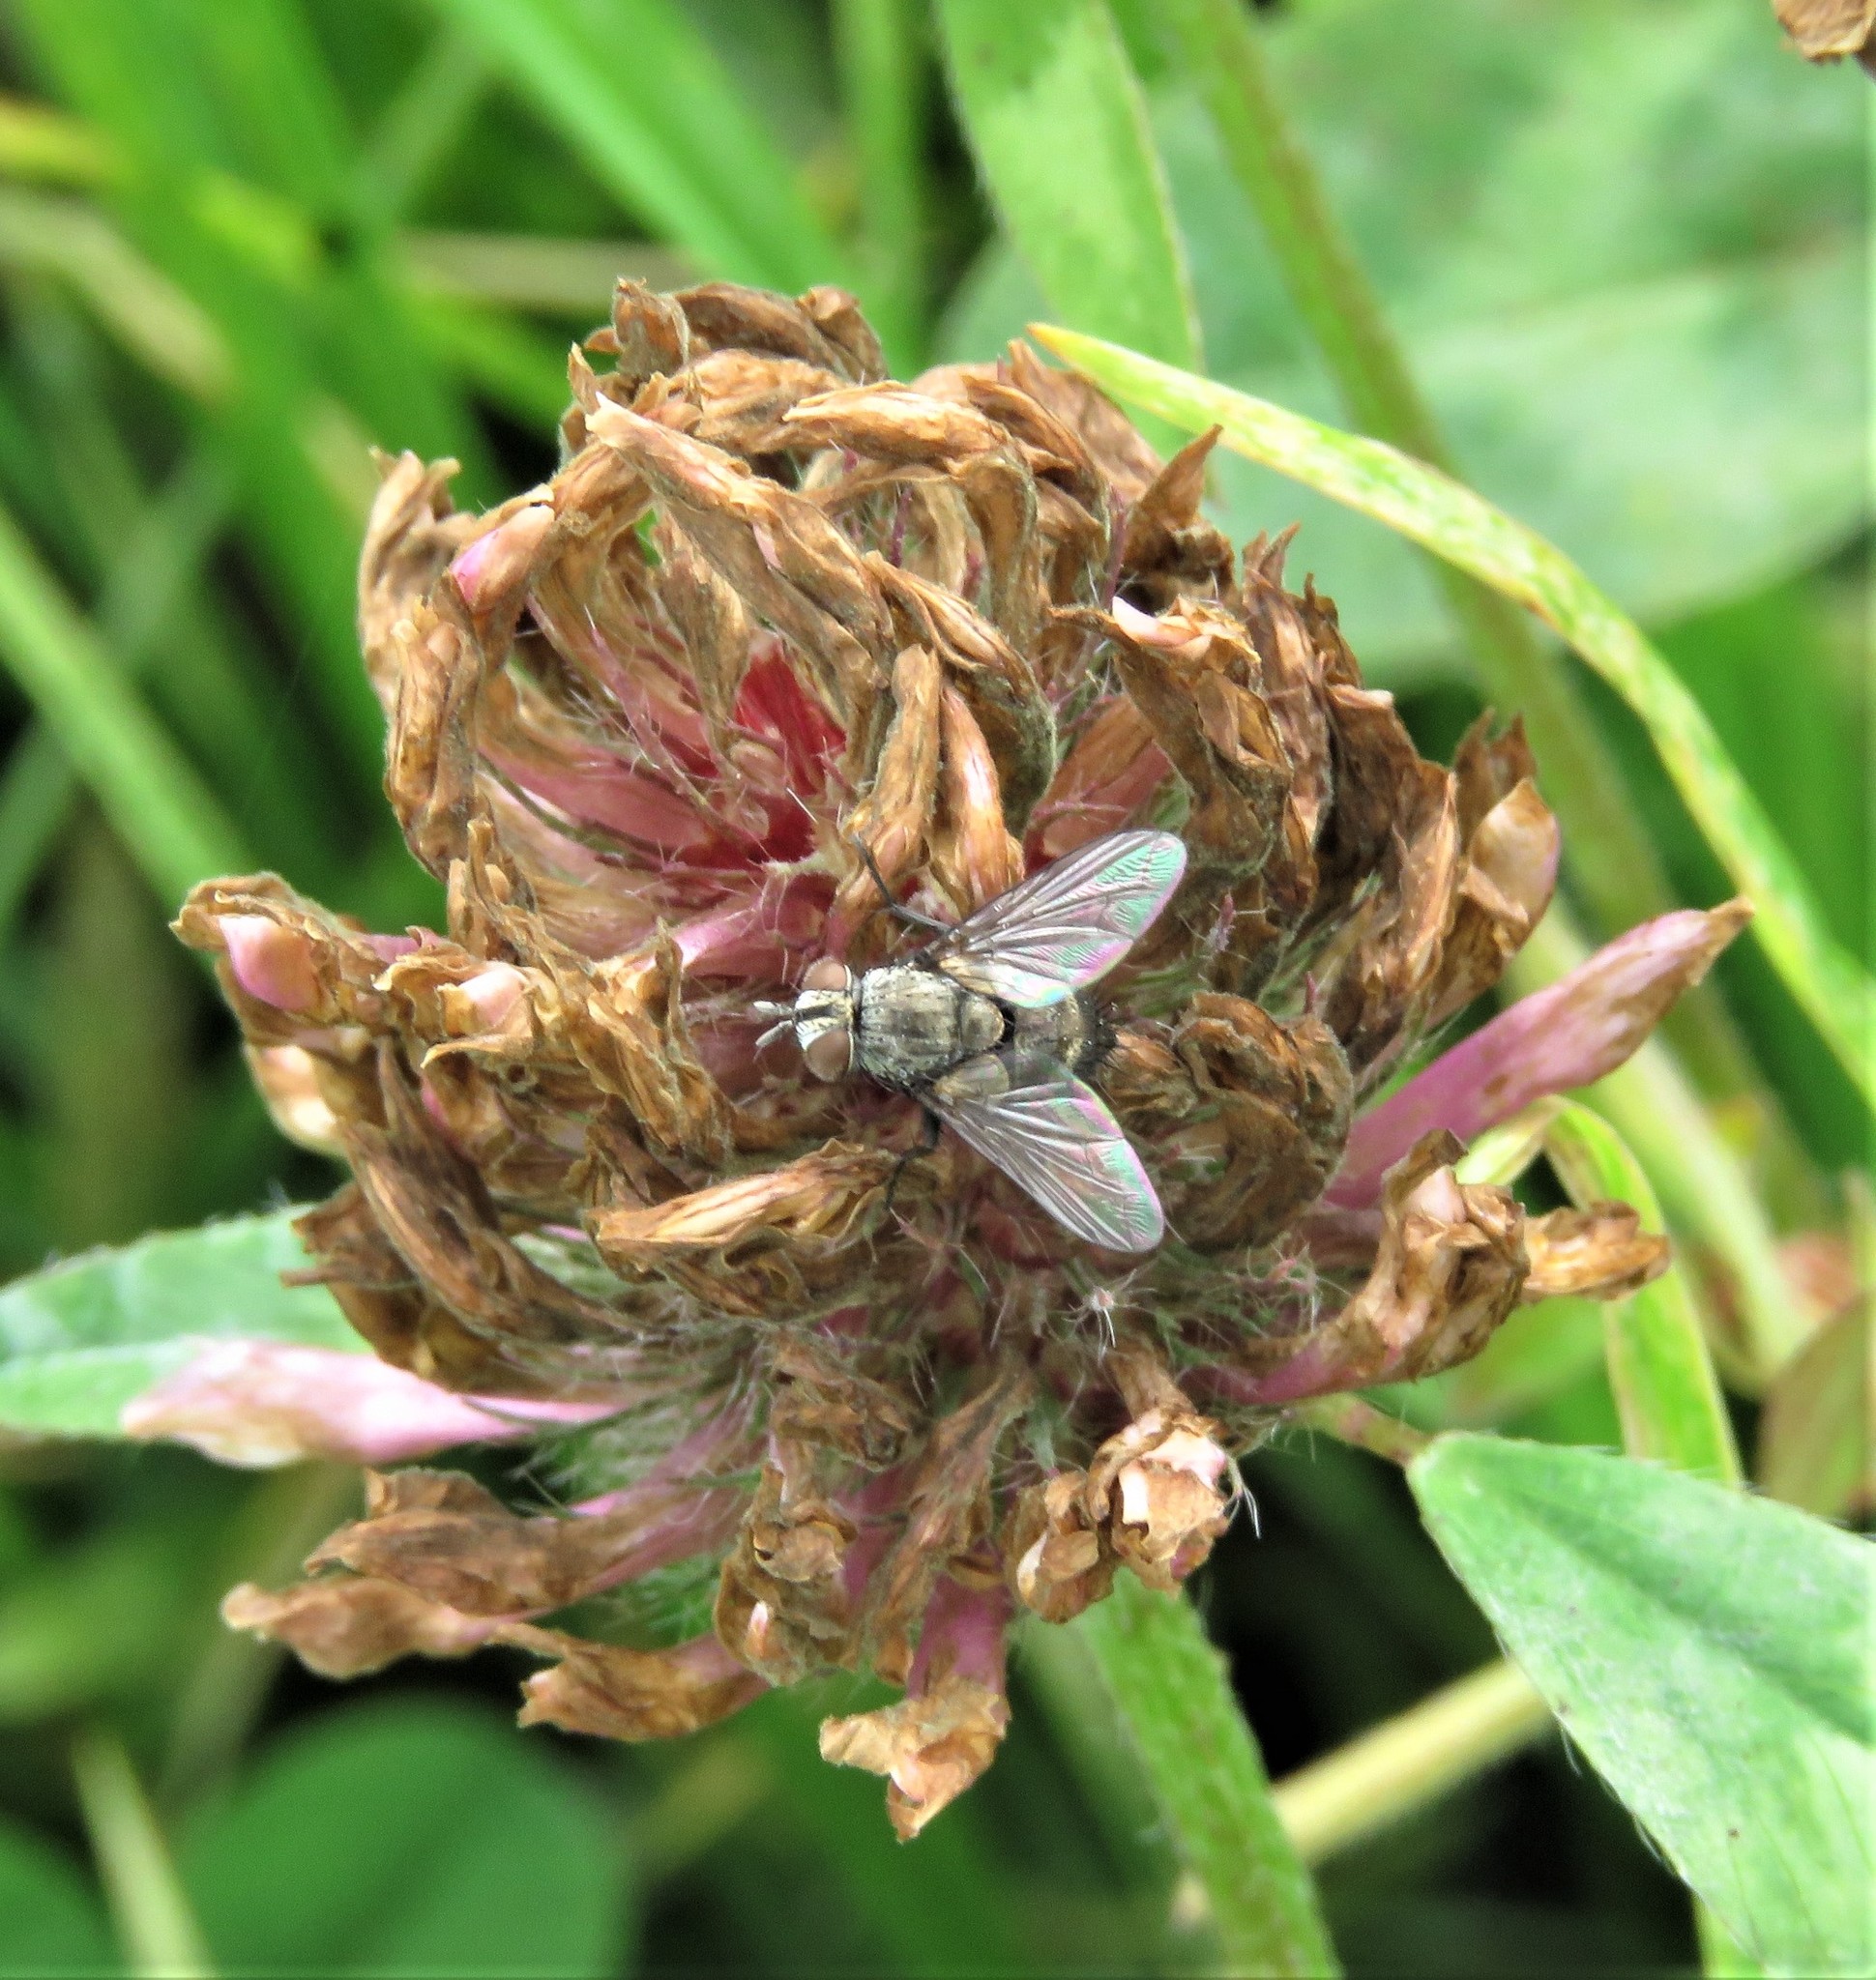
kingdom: Plantae
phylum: Tracheophyta
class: Magnoliopsida
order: Fabales
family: Fabaceae
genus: Trifolium
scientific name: Trifolium pratense
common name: Red clover
